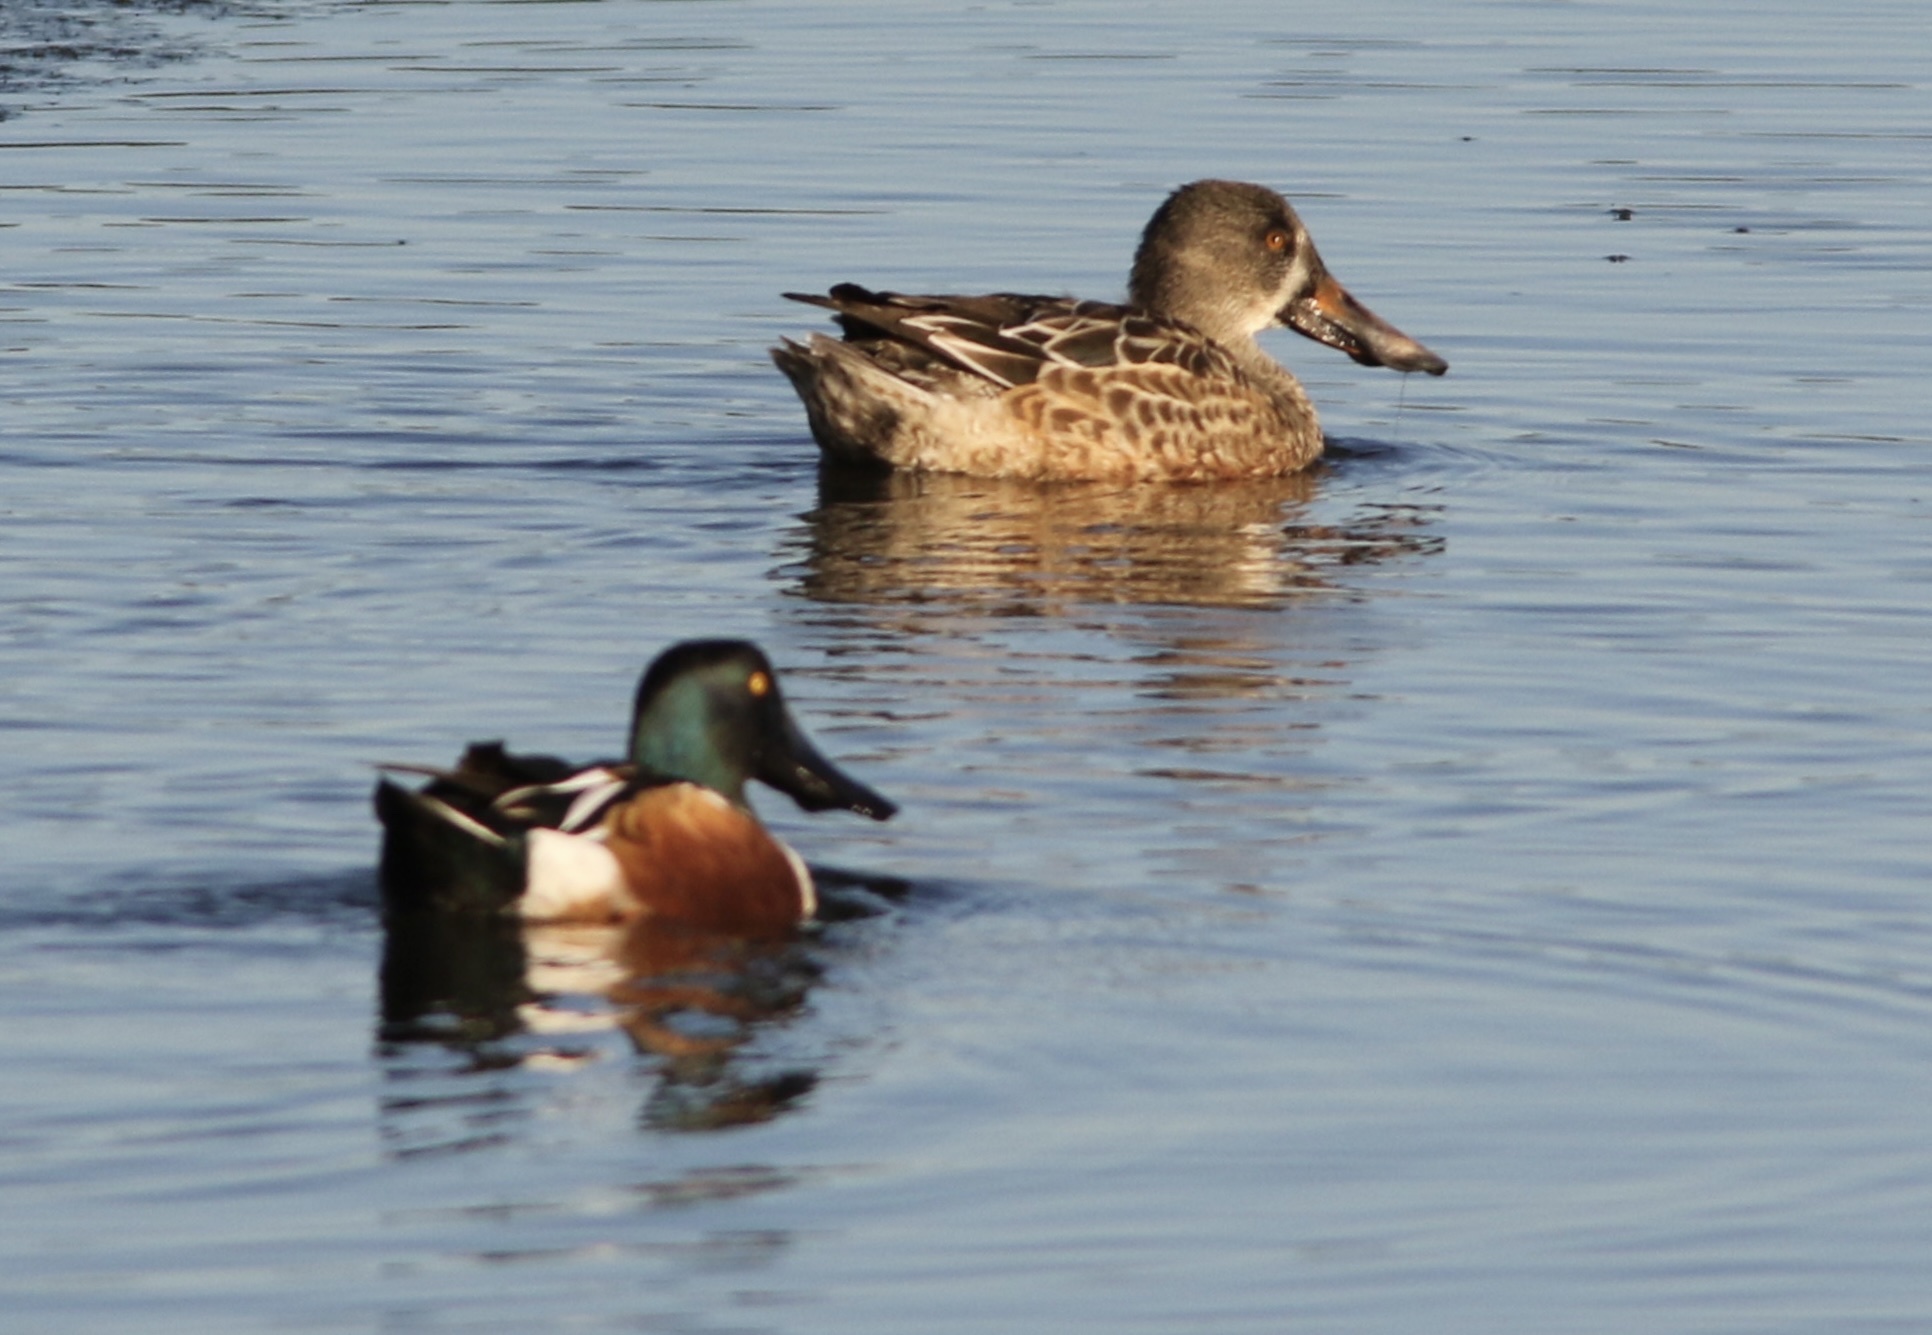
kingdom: Animalia
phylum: Chordata
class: Aves
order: Anseriformes
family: Anatidae
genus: Spatula
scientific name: Spatula clypeata
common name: Northern shoveler
